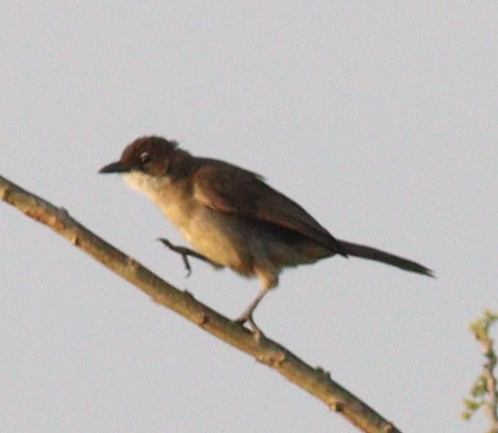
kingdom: Animalia
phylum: Chordata
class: Aves
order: Passeriformes
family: Pycnonotidae
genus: Chlorocichla
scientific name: Chlorocichla simplex
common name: Simple greenbul
